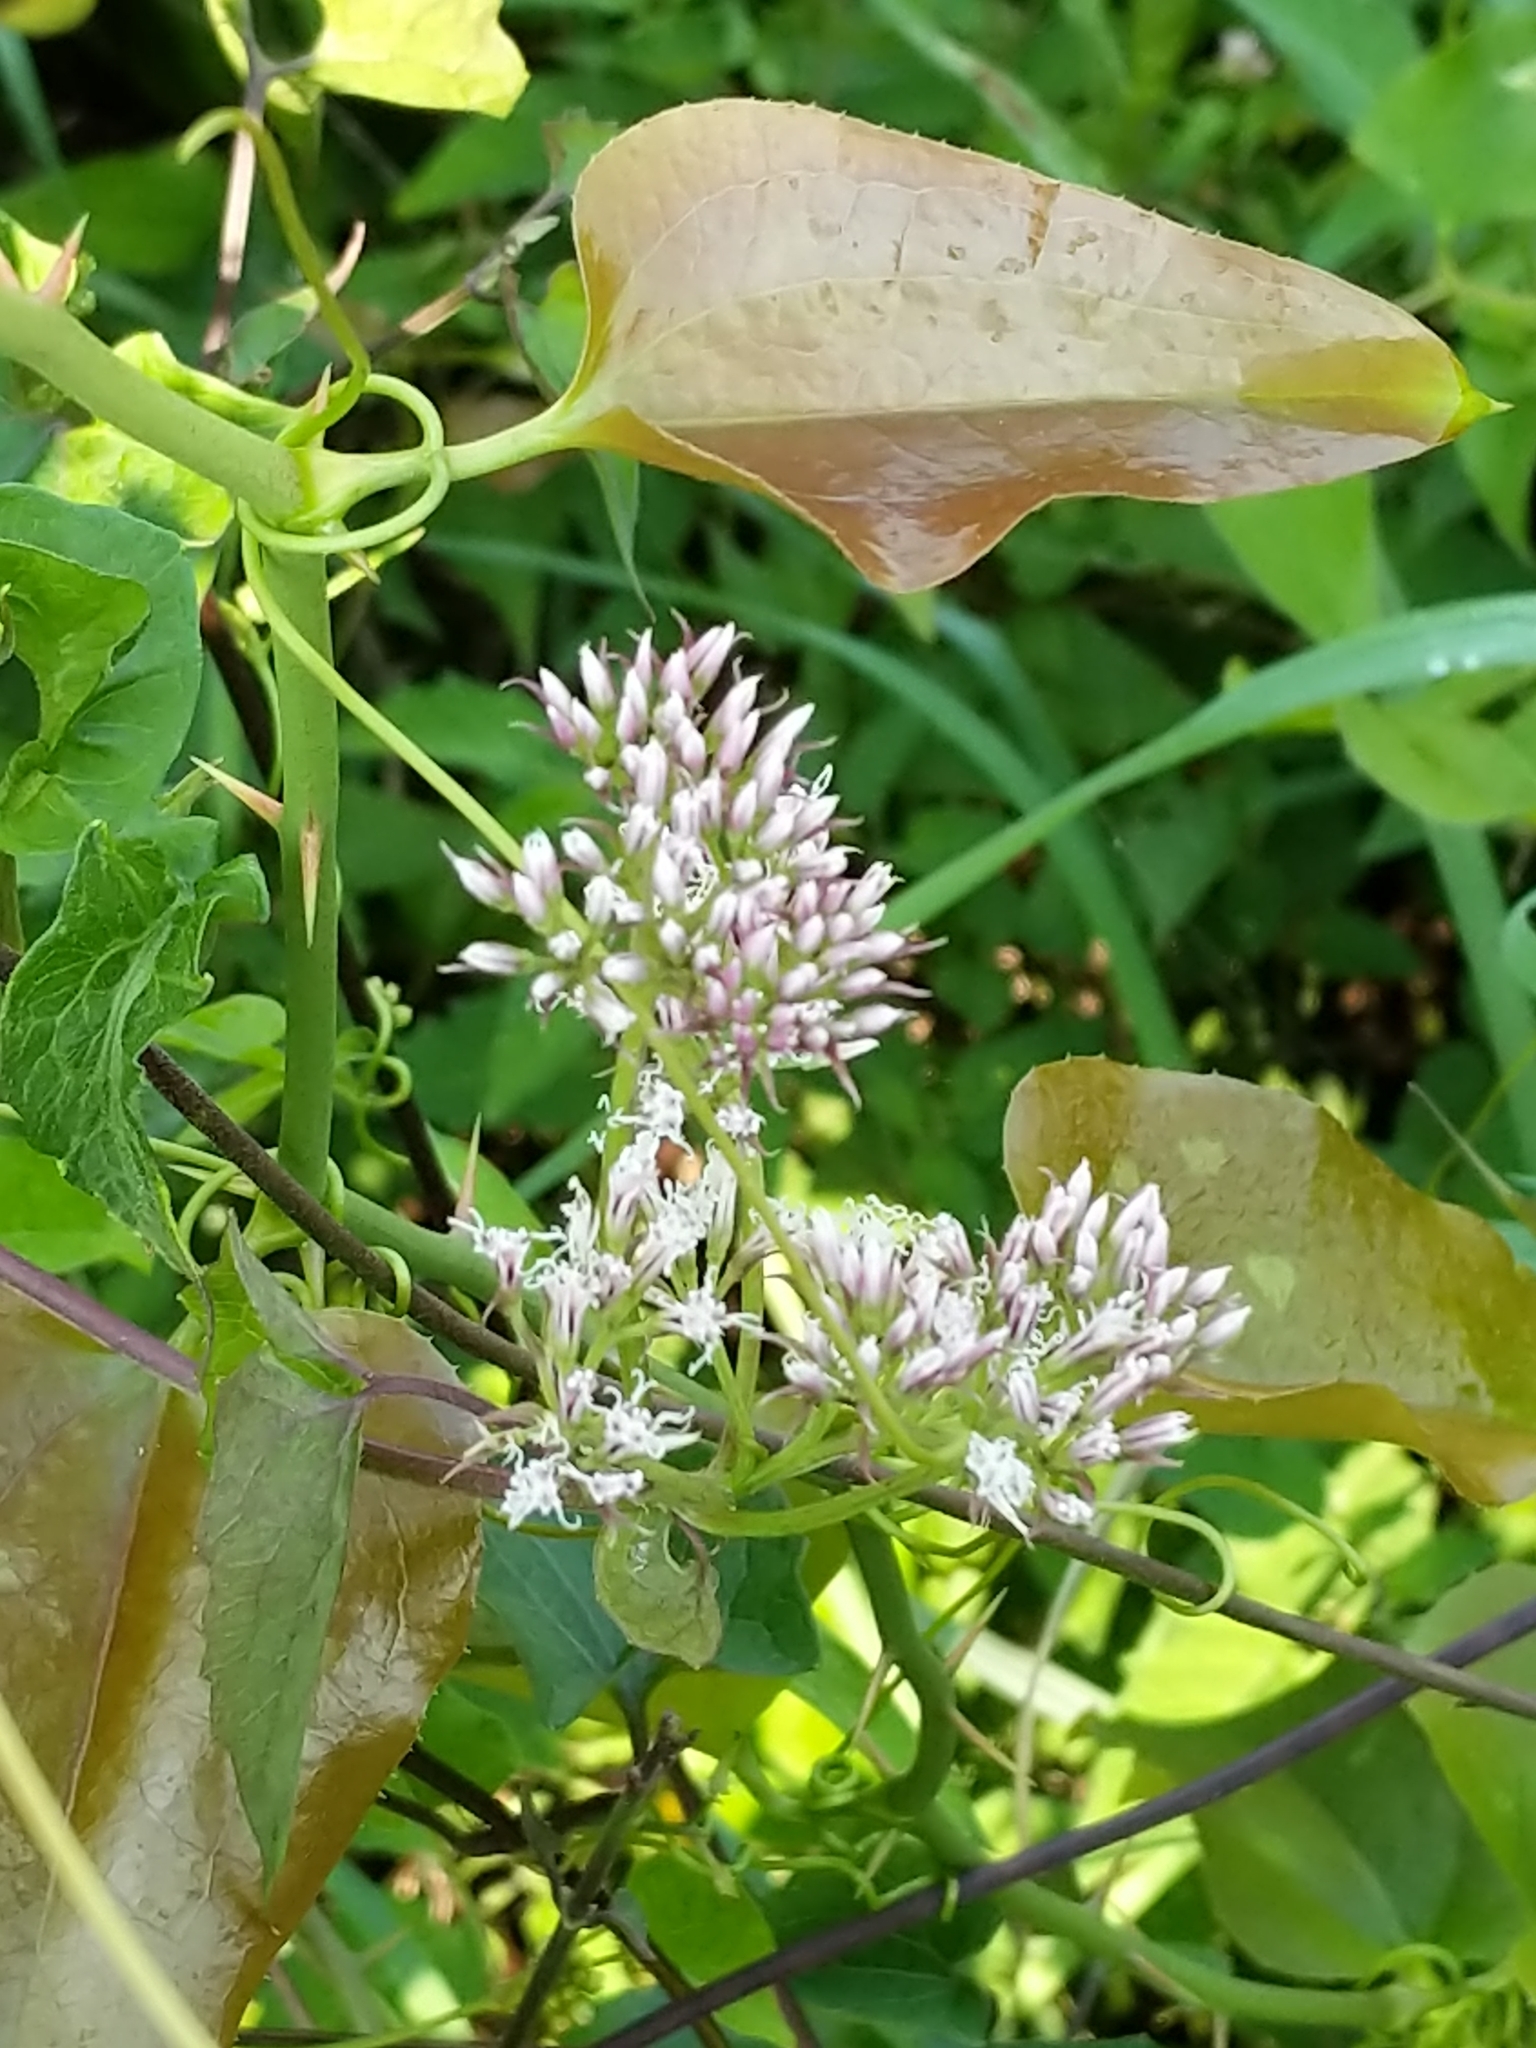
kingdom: Plantae
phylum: Tracheophyta
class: Magnoliopsida
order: Asterales
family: Asteraceae
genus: Mikania
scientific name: Mikania scandens
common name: Climbing hempvine
